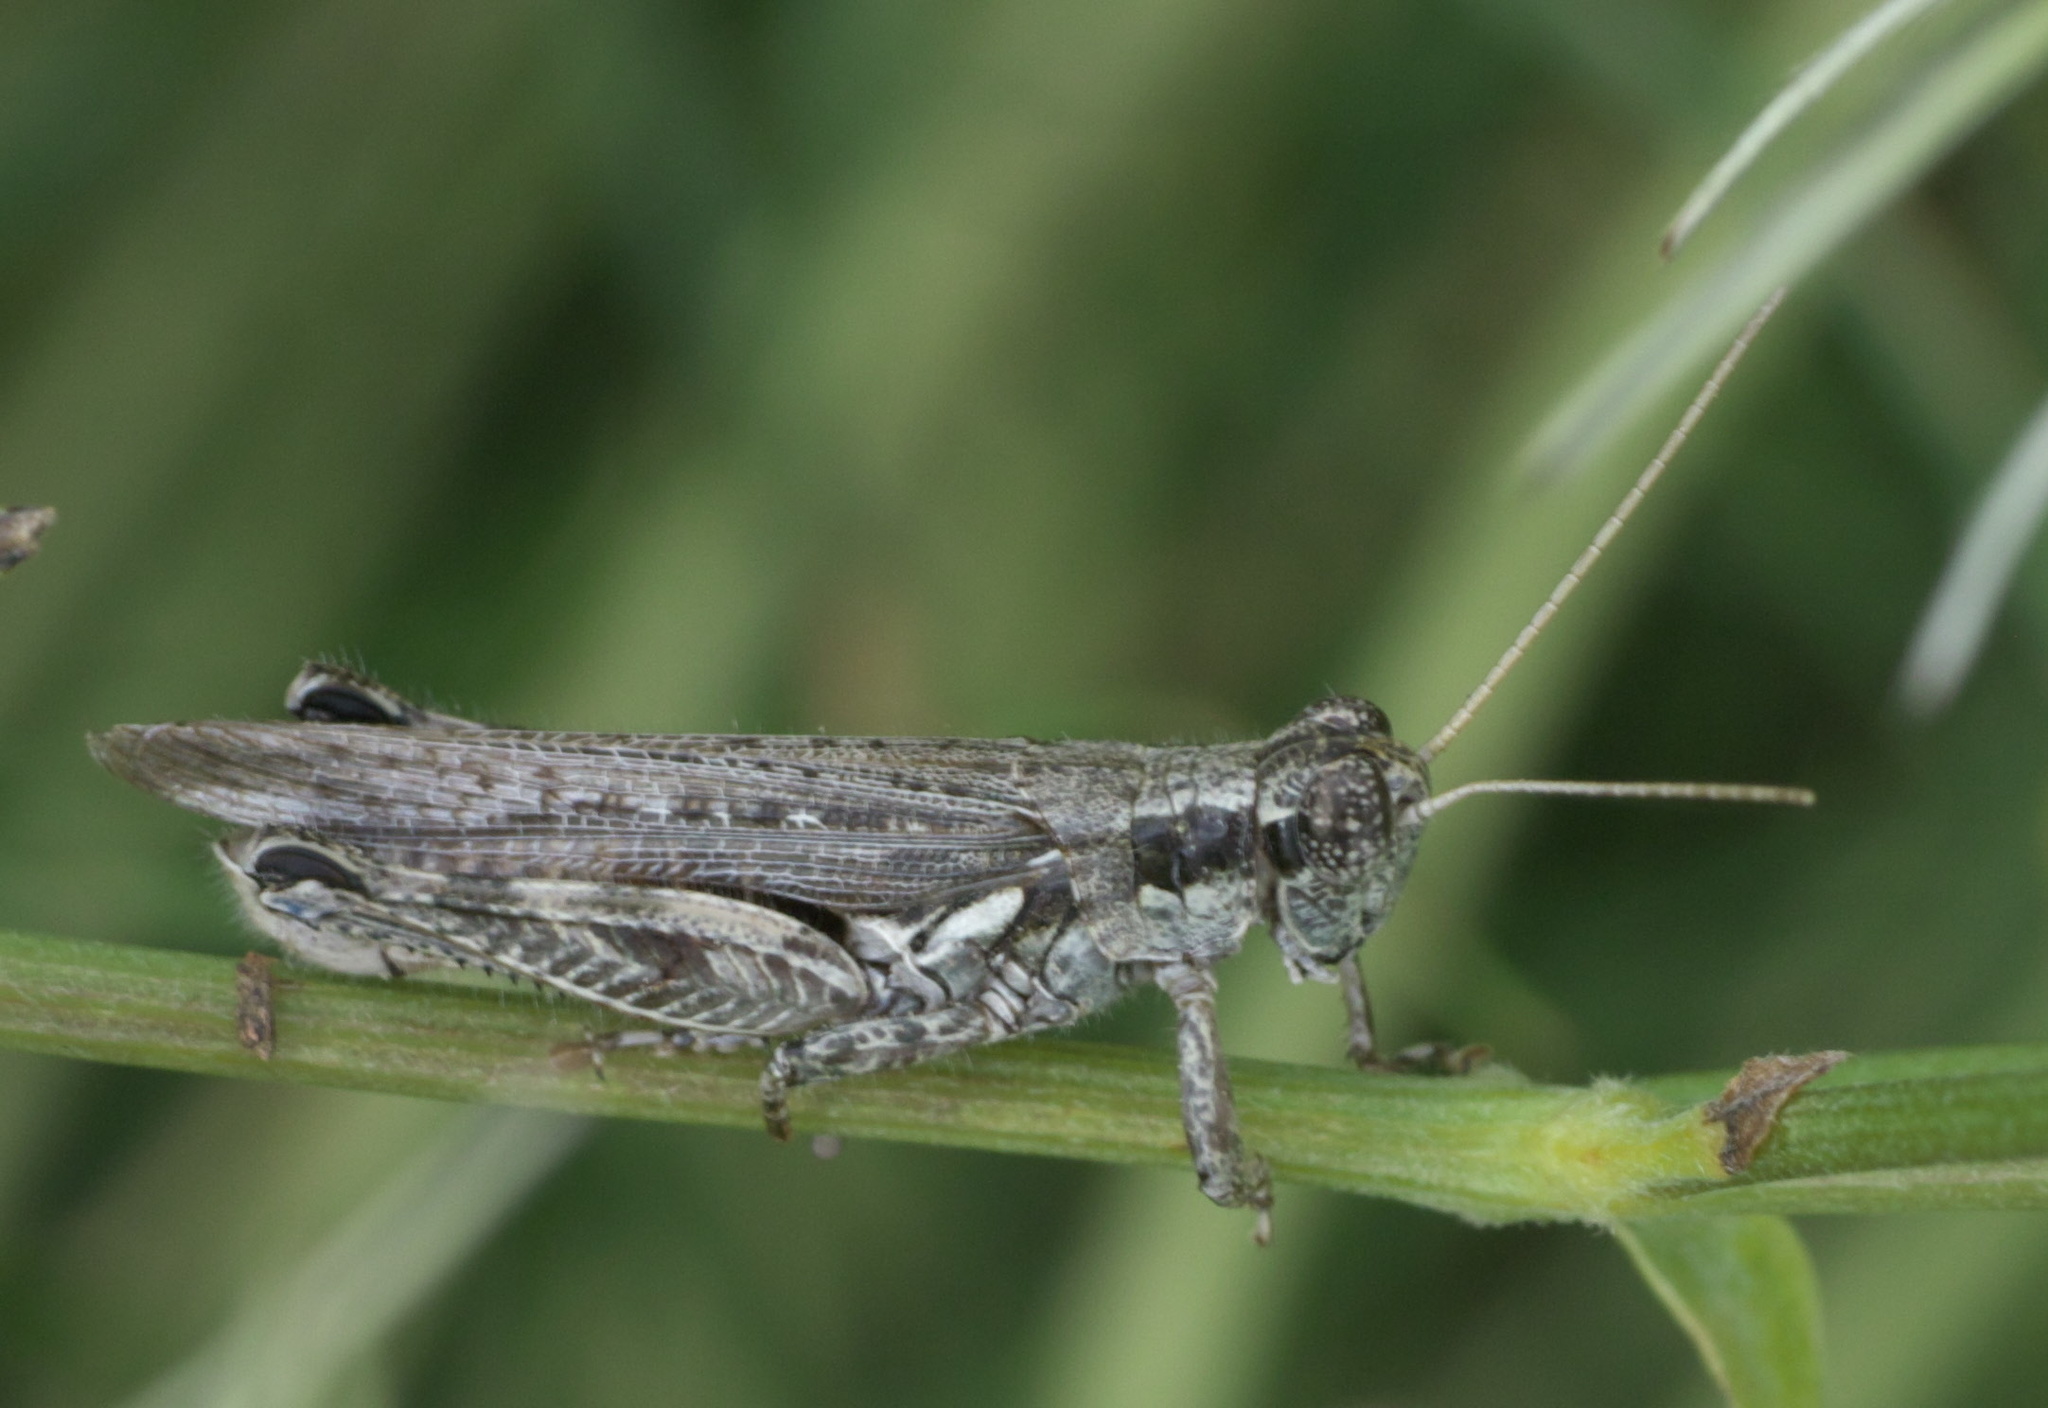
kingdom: Animalia
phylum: Arthropoda
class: Insecta
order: Orthoptera
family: Acrididae
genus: Melanoplus
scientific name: Melanoplus complanatipes
